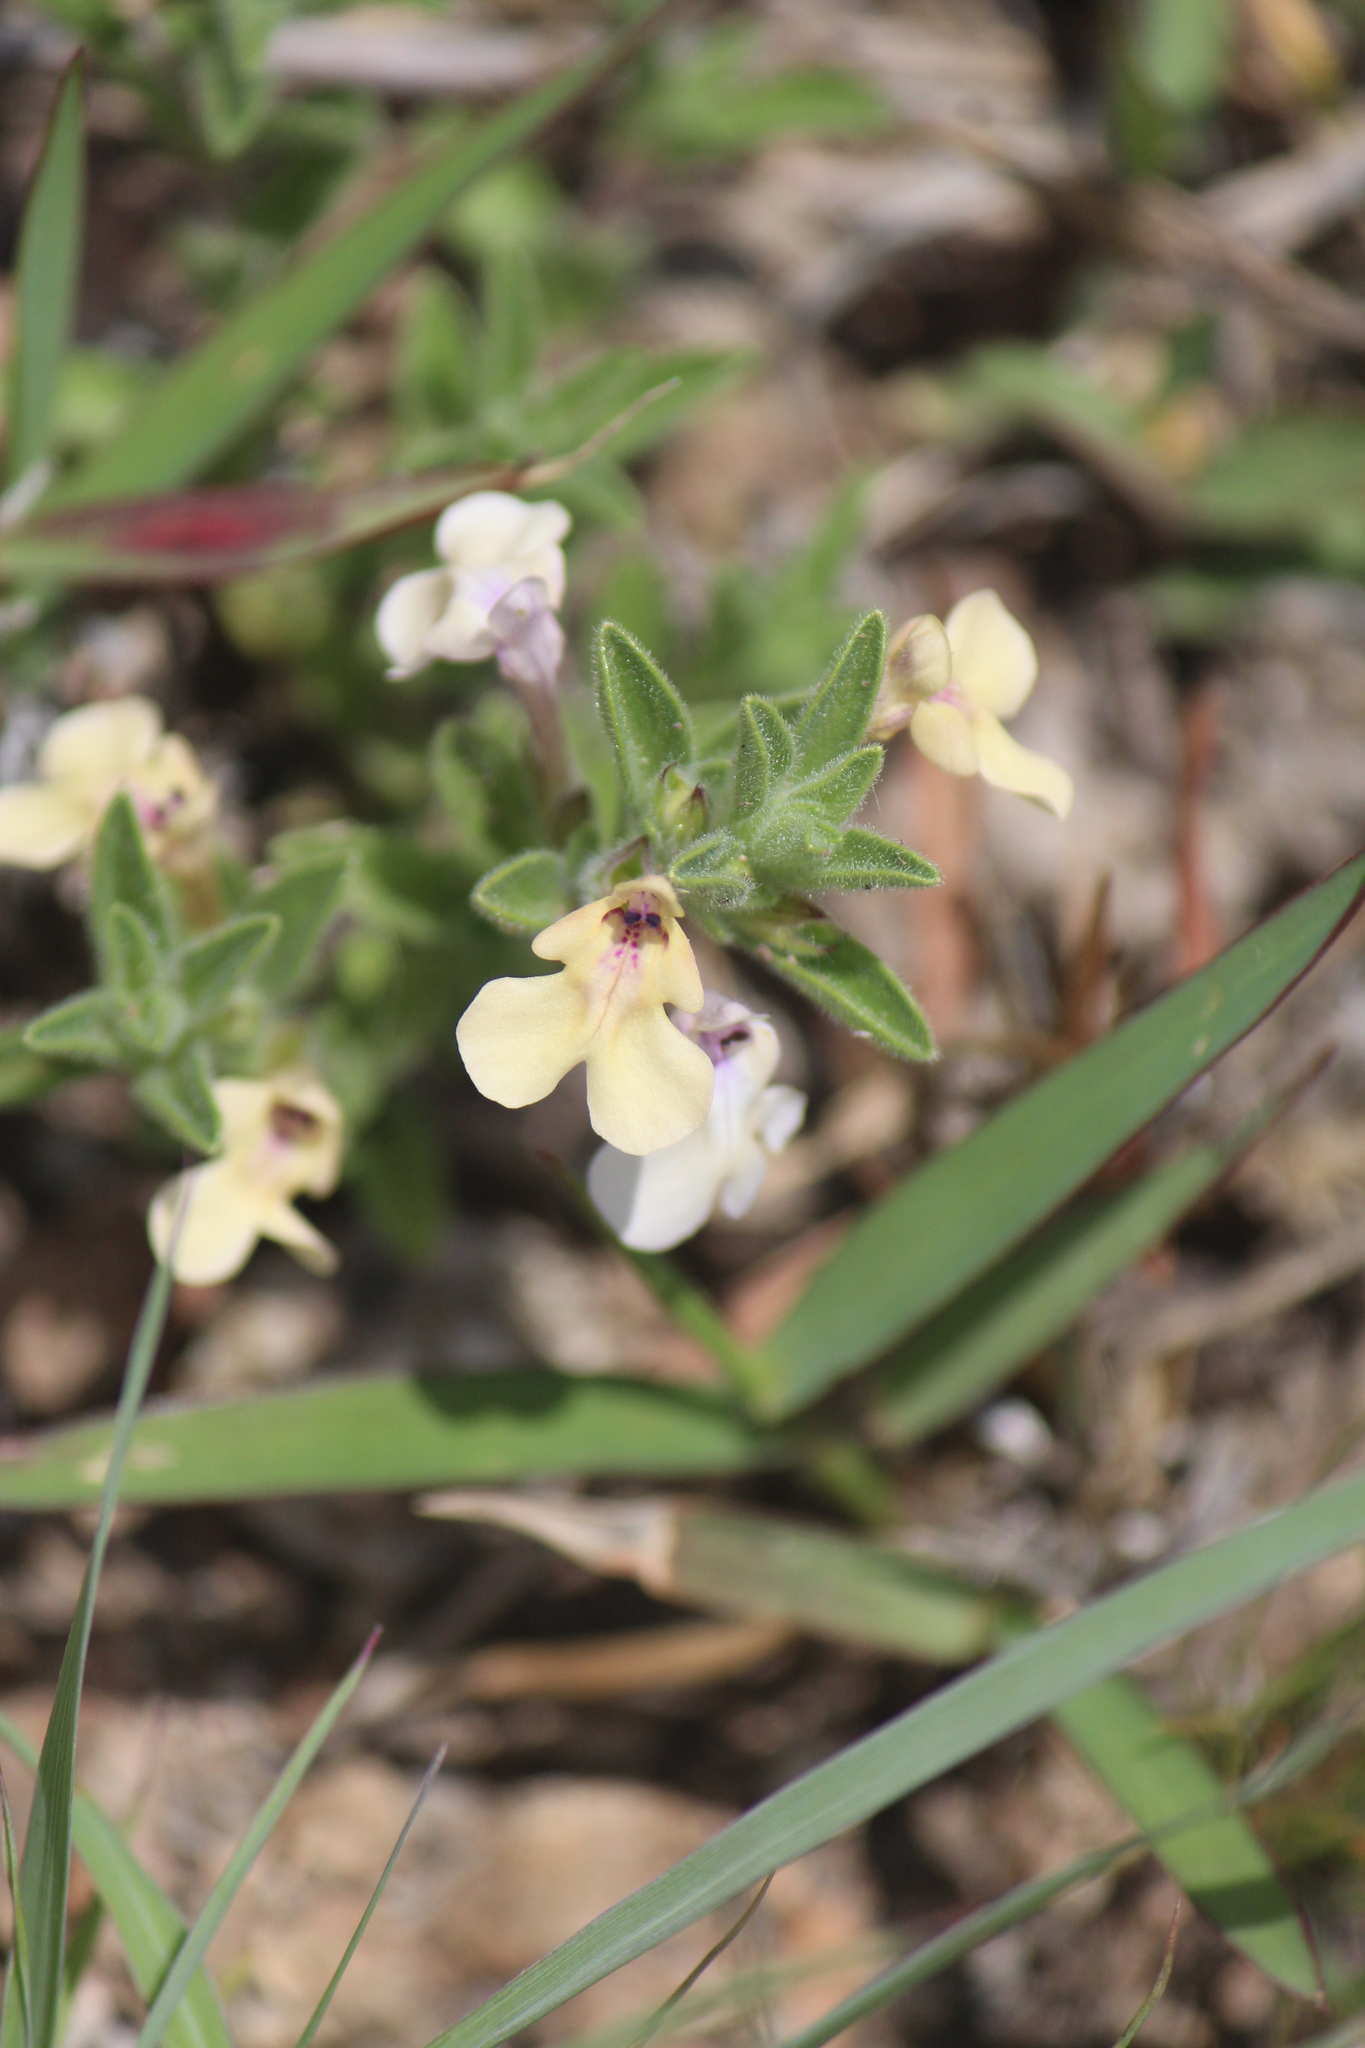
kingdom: Plantae
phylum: Tracheophyta
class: Magnoliopsida
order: Lamiales
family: Lamiaceae
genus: Salvia
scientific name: Salvia axillaris
